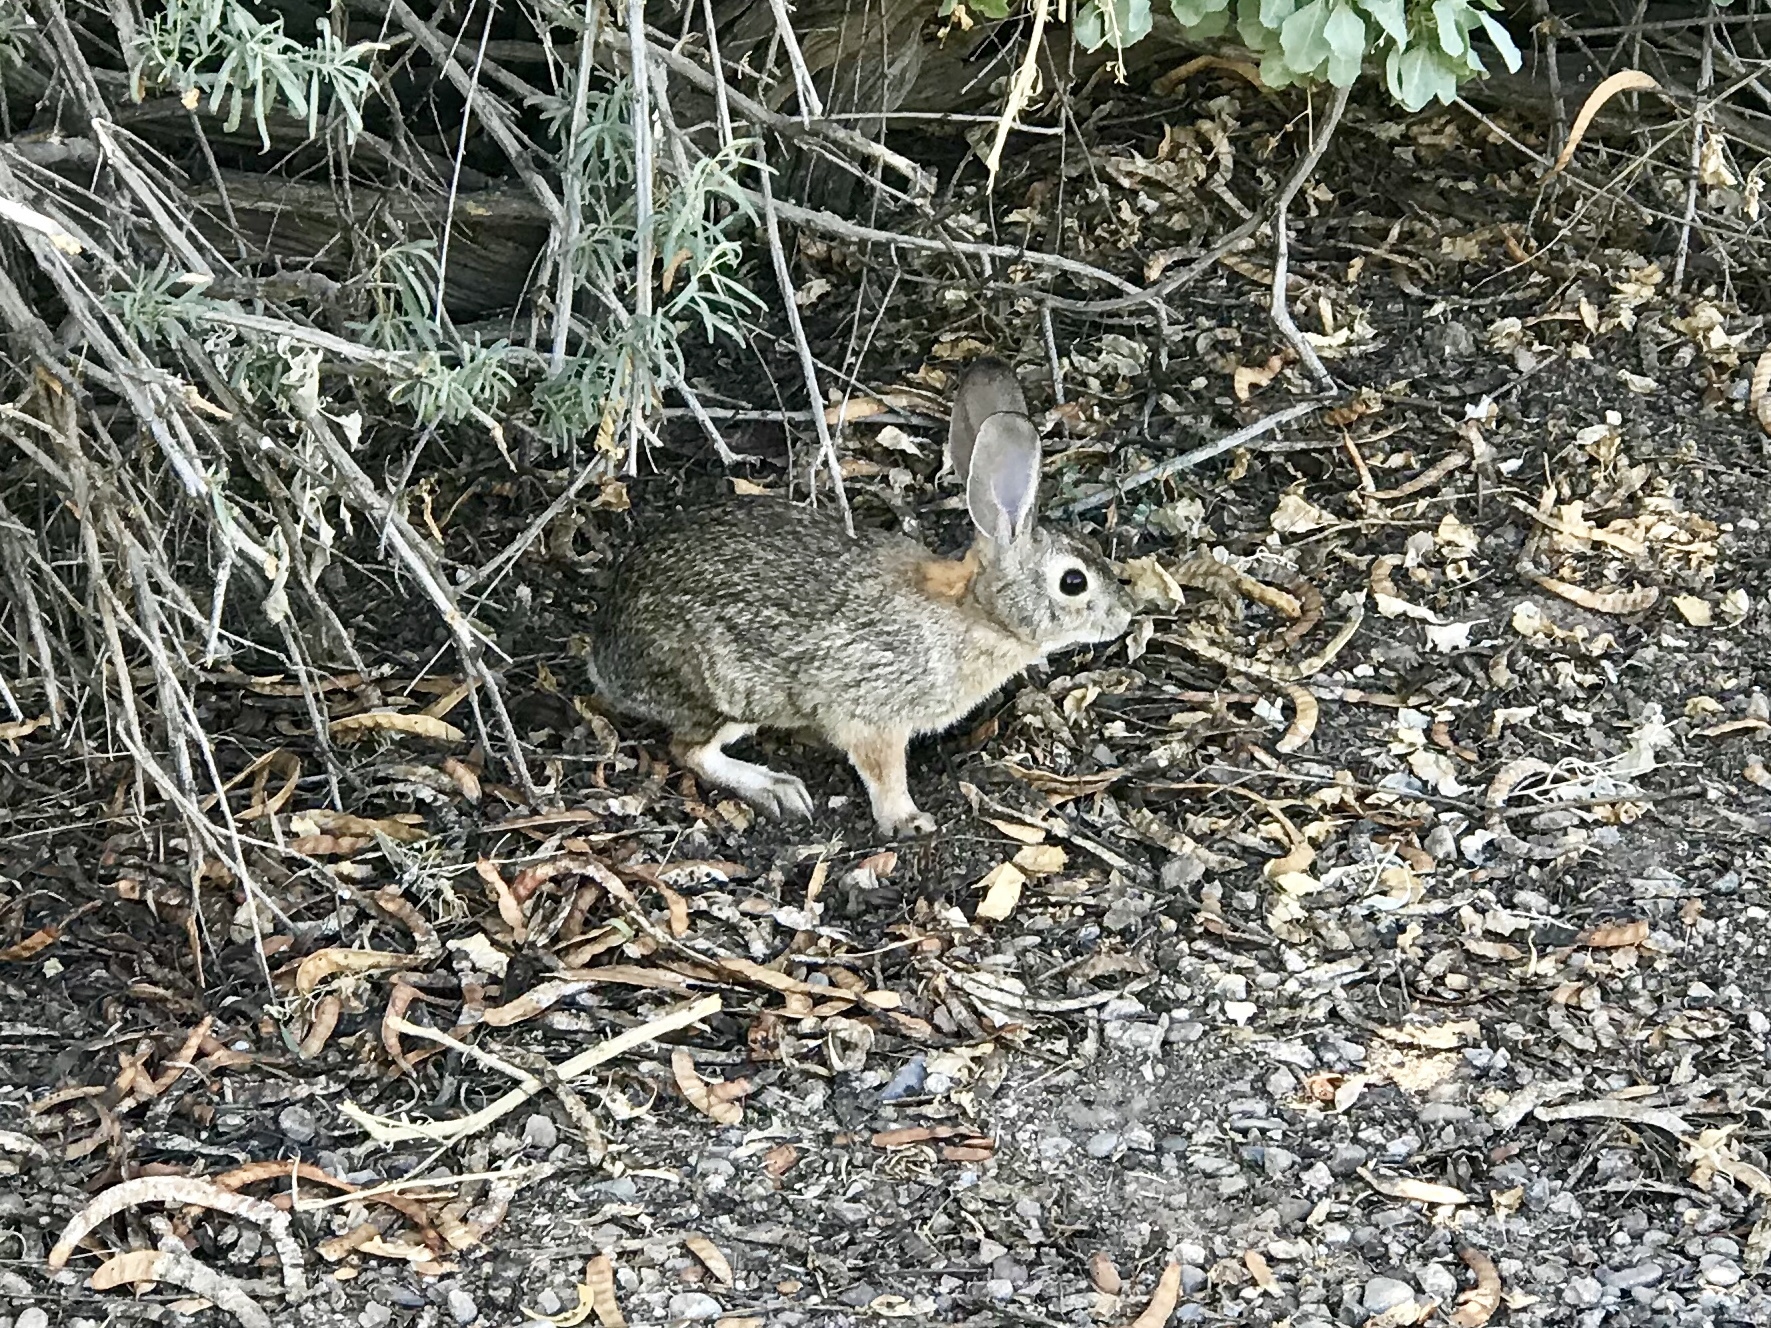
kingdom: Animalia
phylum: Chordata
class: Mammalia
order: Lagomorpha
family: Leporidae
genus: Sylvilagus
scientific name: Sylvilagus audubonii
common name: Desert cottontail
